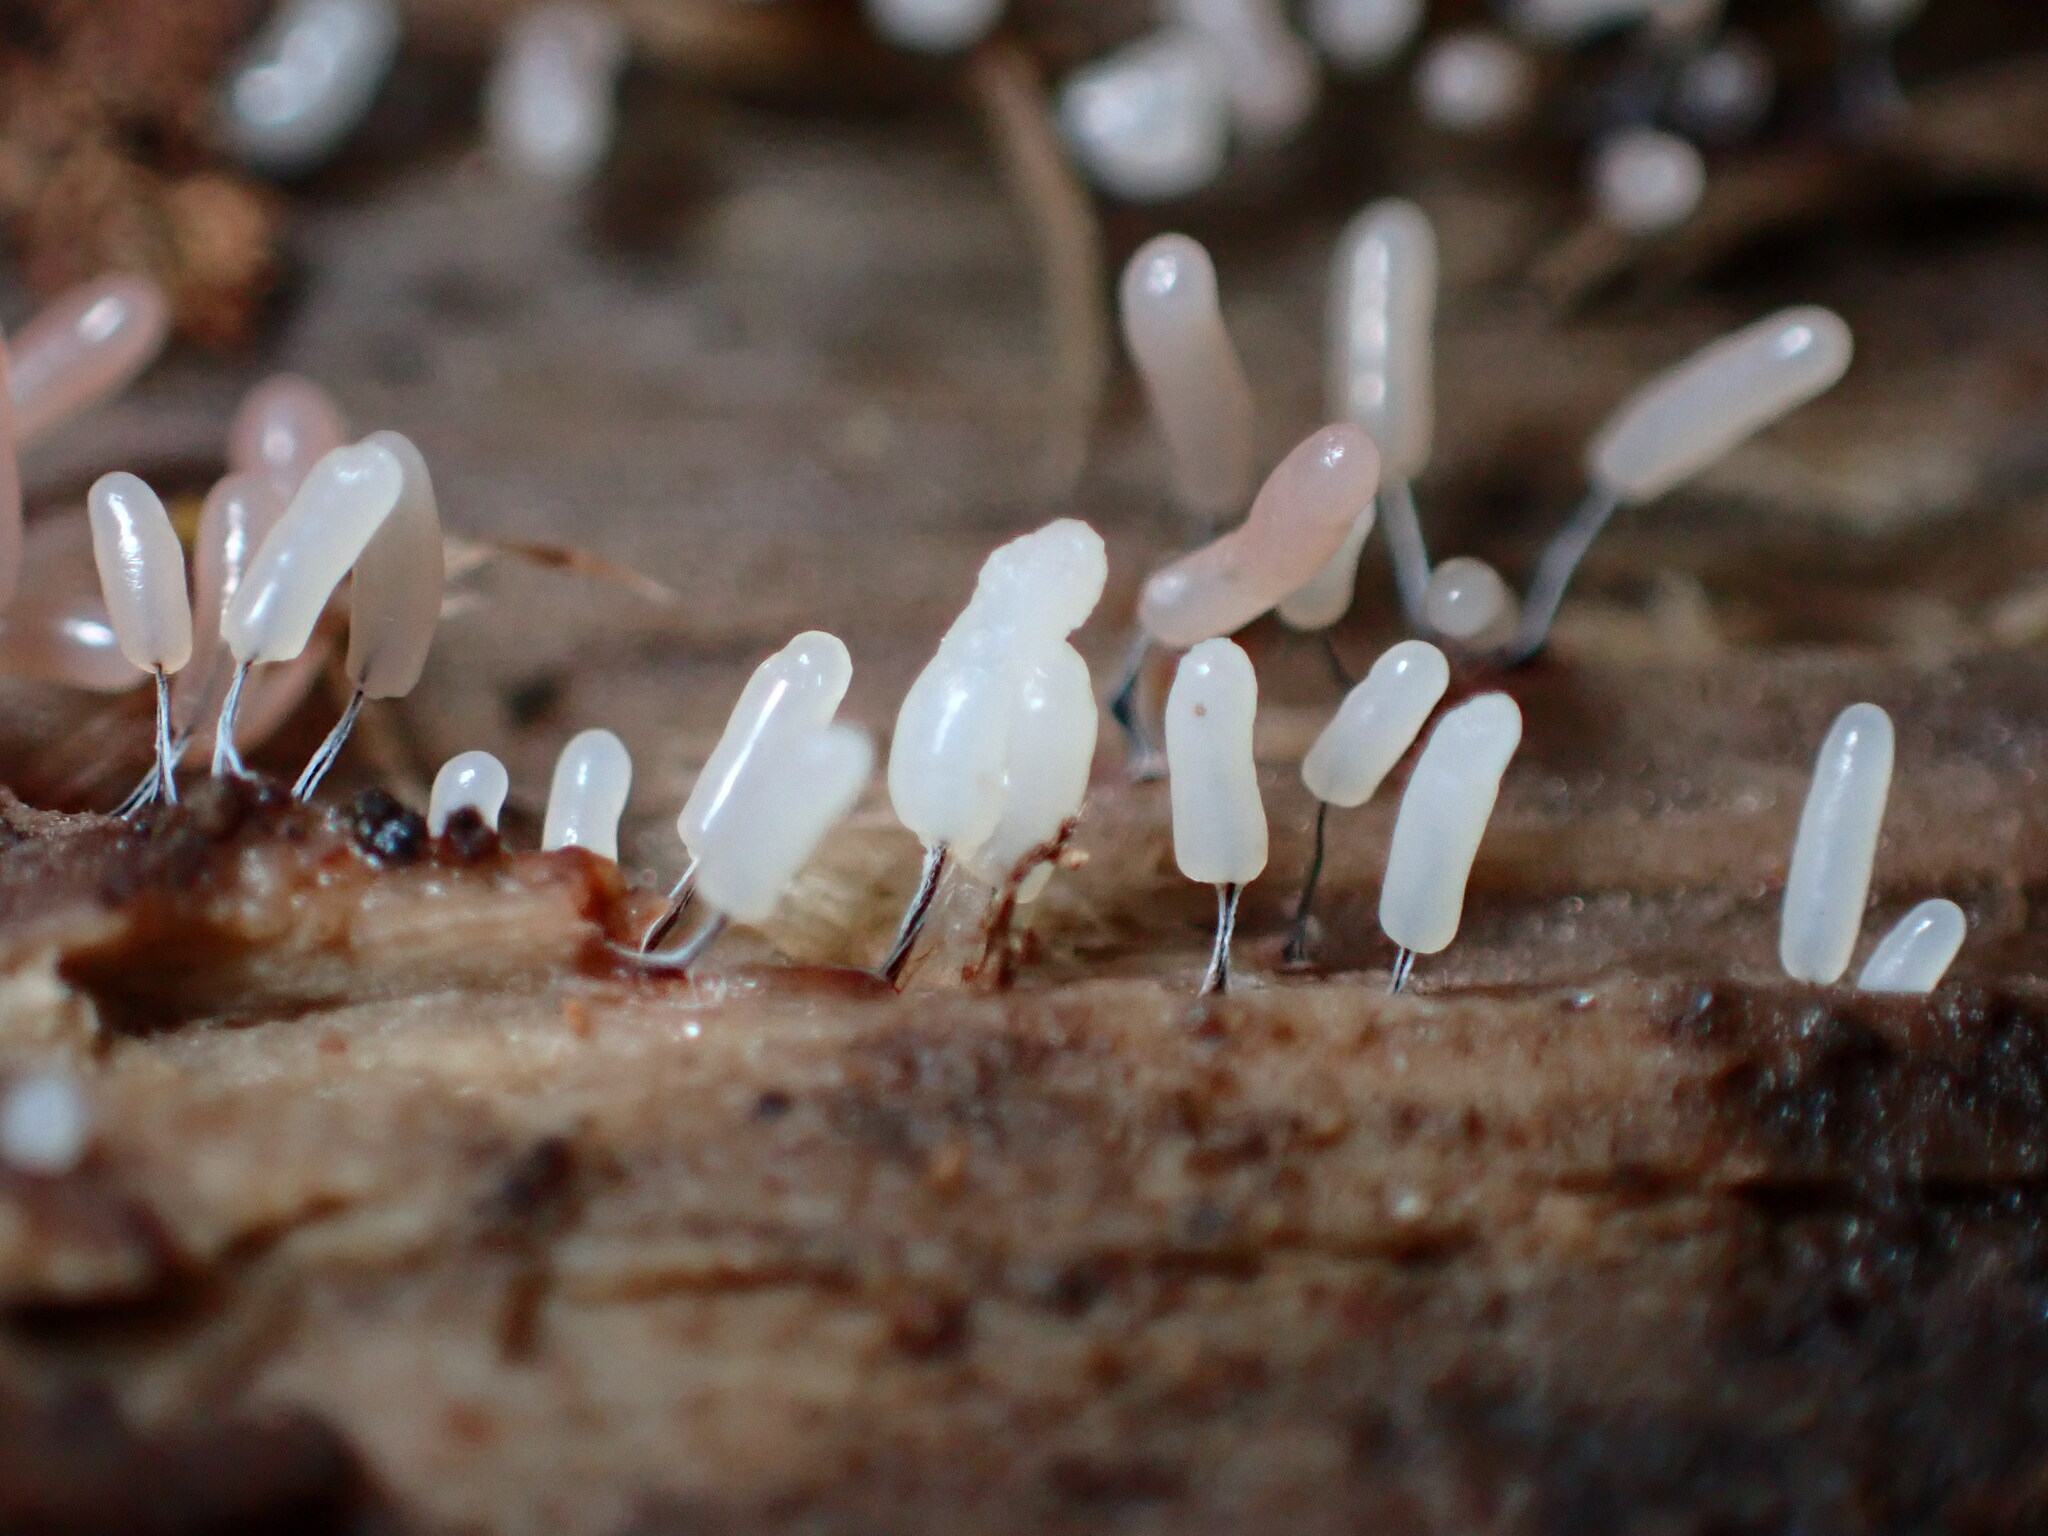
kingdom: Protozoa
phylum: Mycetozoa
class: Myxomycetes
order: Stemonitidales
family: Stemonitidaceae
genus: Stemonitopsis
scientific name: Stemonitopsis typhina
